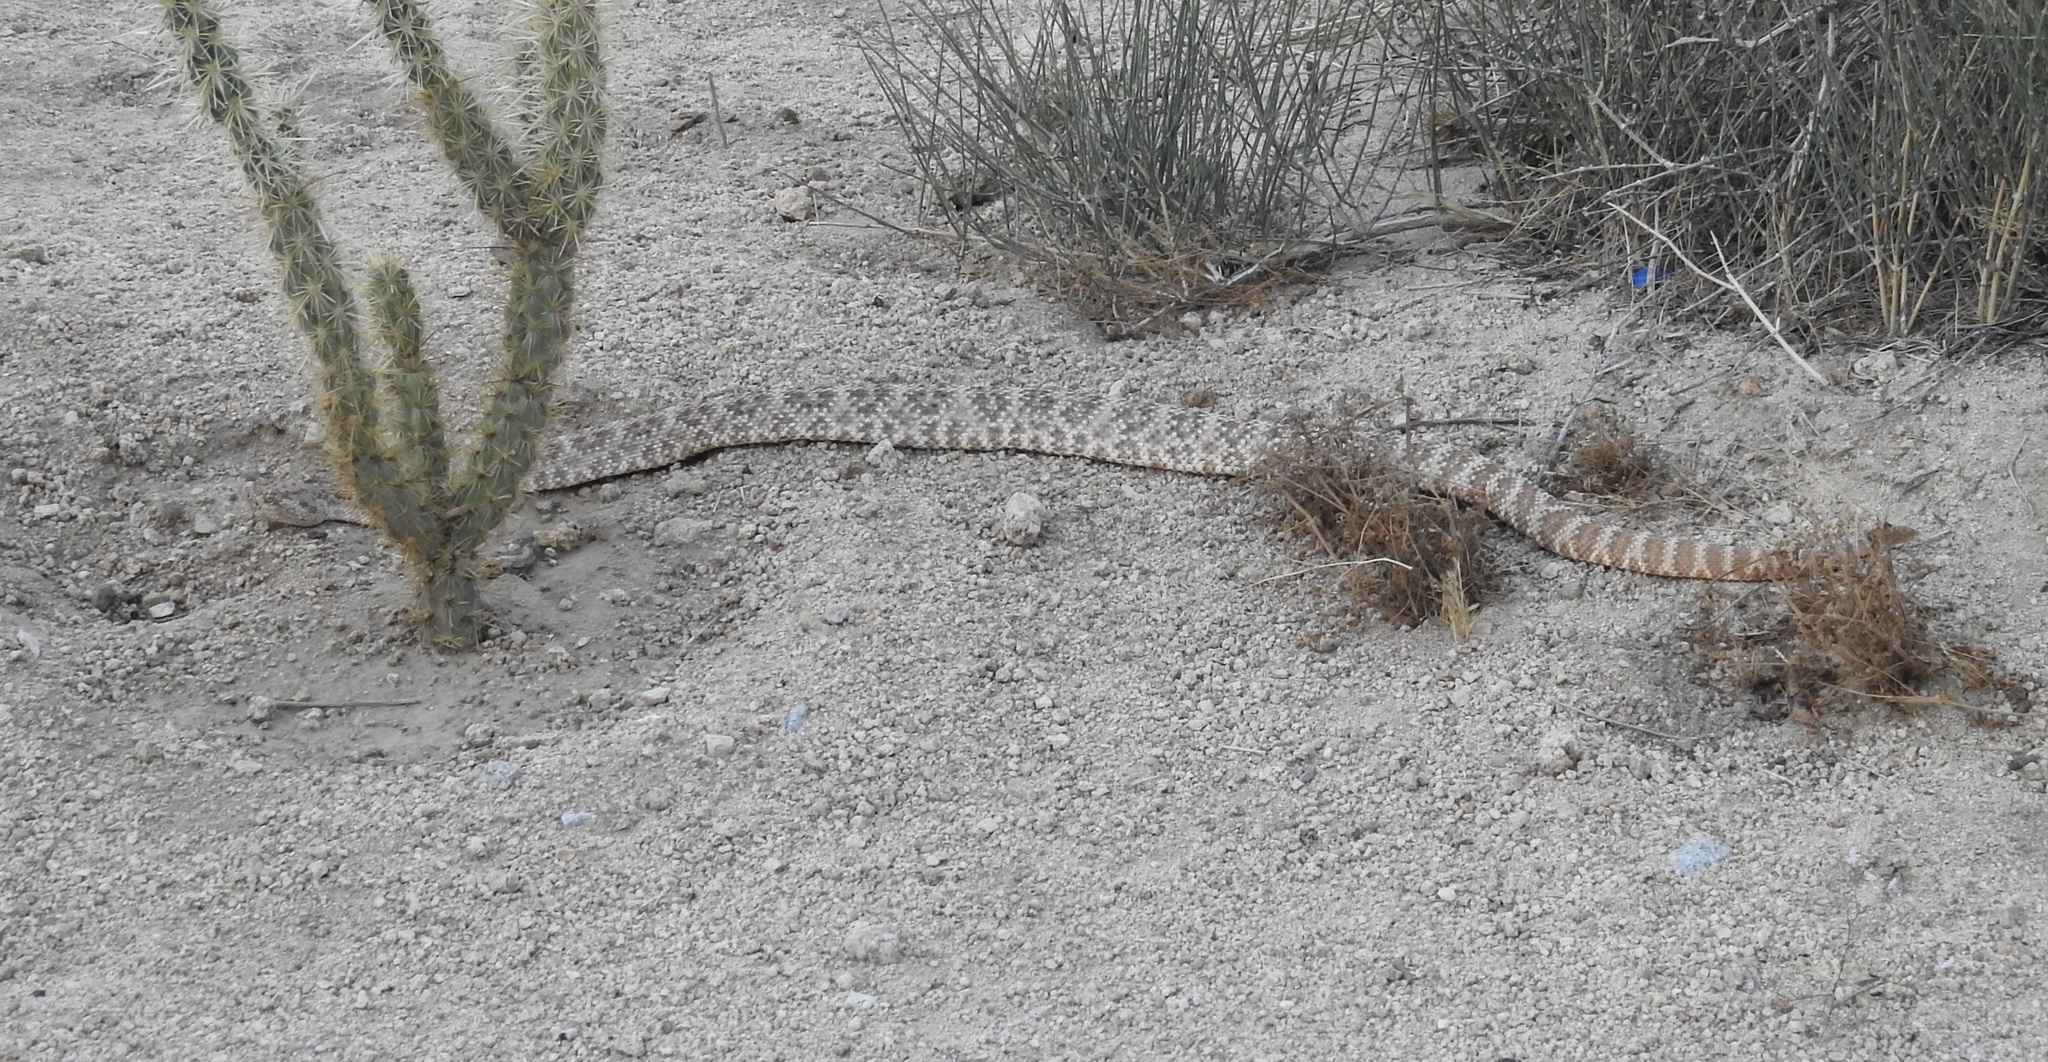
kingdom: Animalia
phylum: Chordata
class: Squamata
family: Viperidae
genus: Crotalus
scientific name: Crotalus pyrrhus
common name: Southwestern speckled rattlesnake
